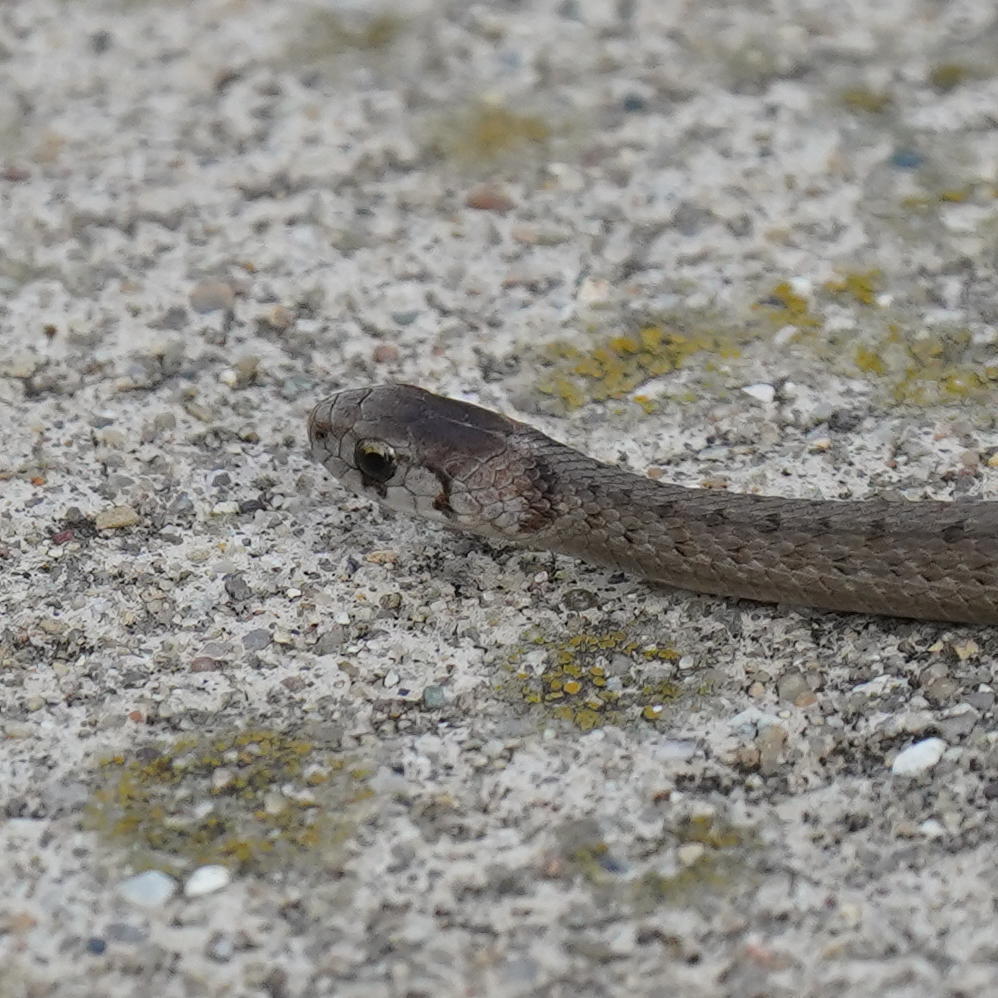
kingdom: Animalia
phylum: Chordata
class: Squamata
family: Colubridae
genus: Storeria
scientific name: Storeria dekayi
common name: (dekay’s) brown snake
